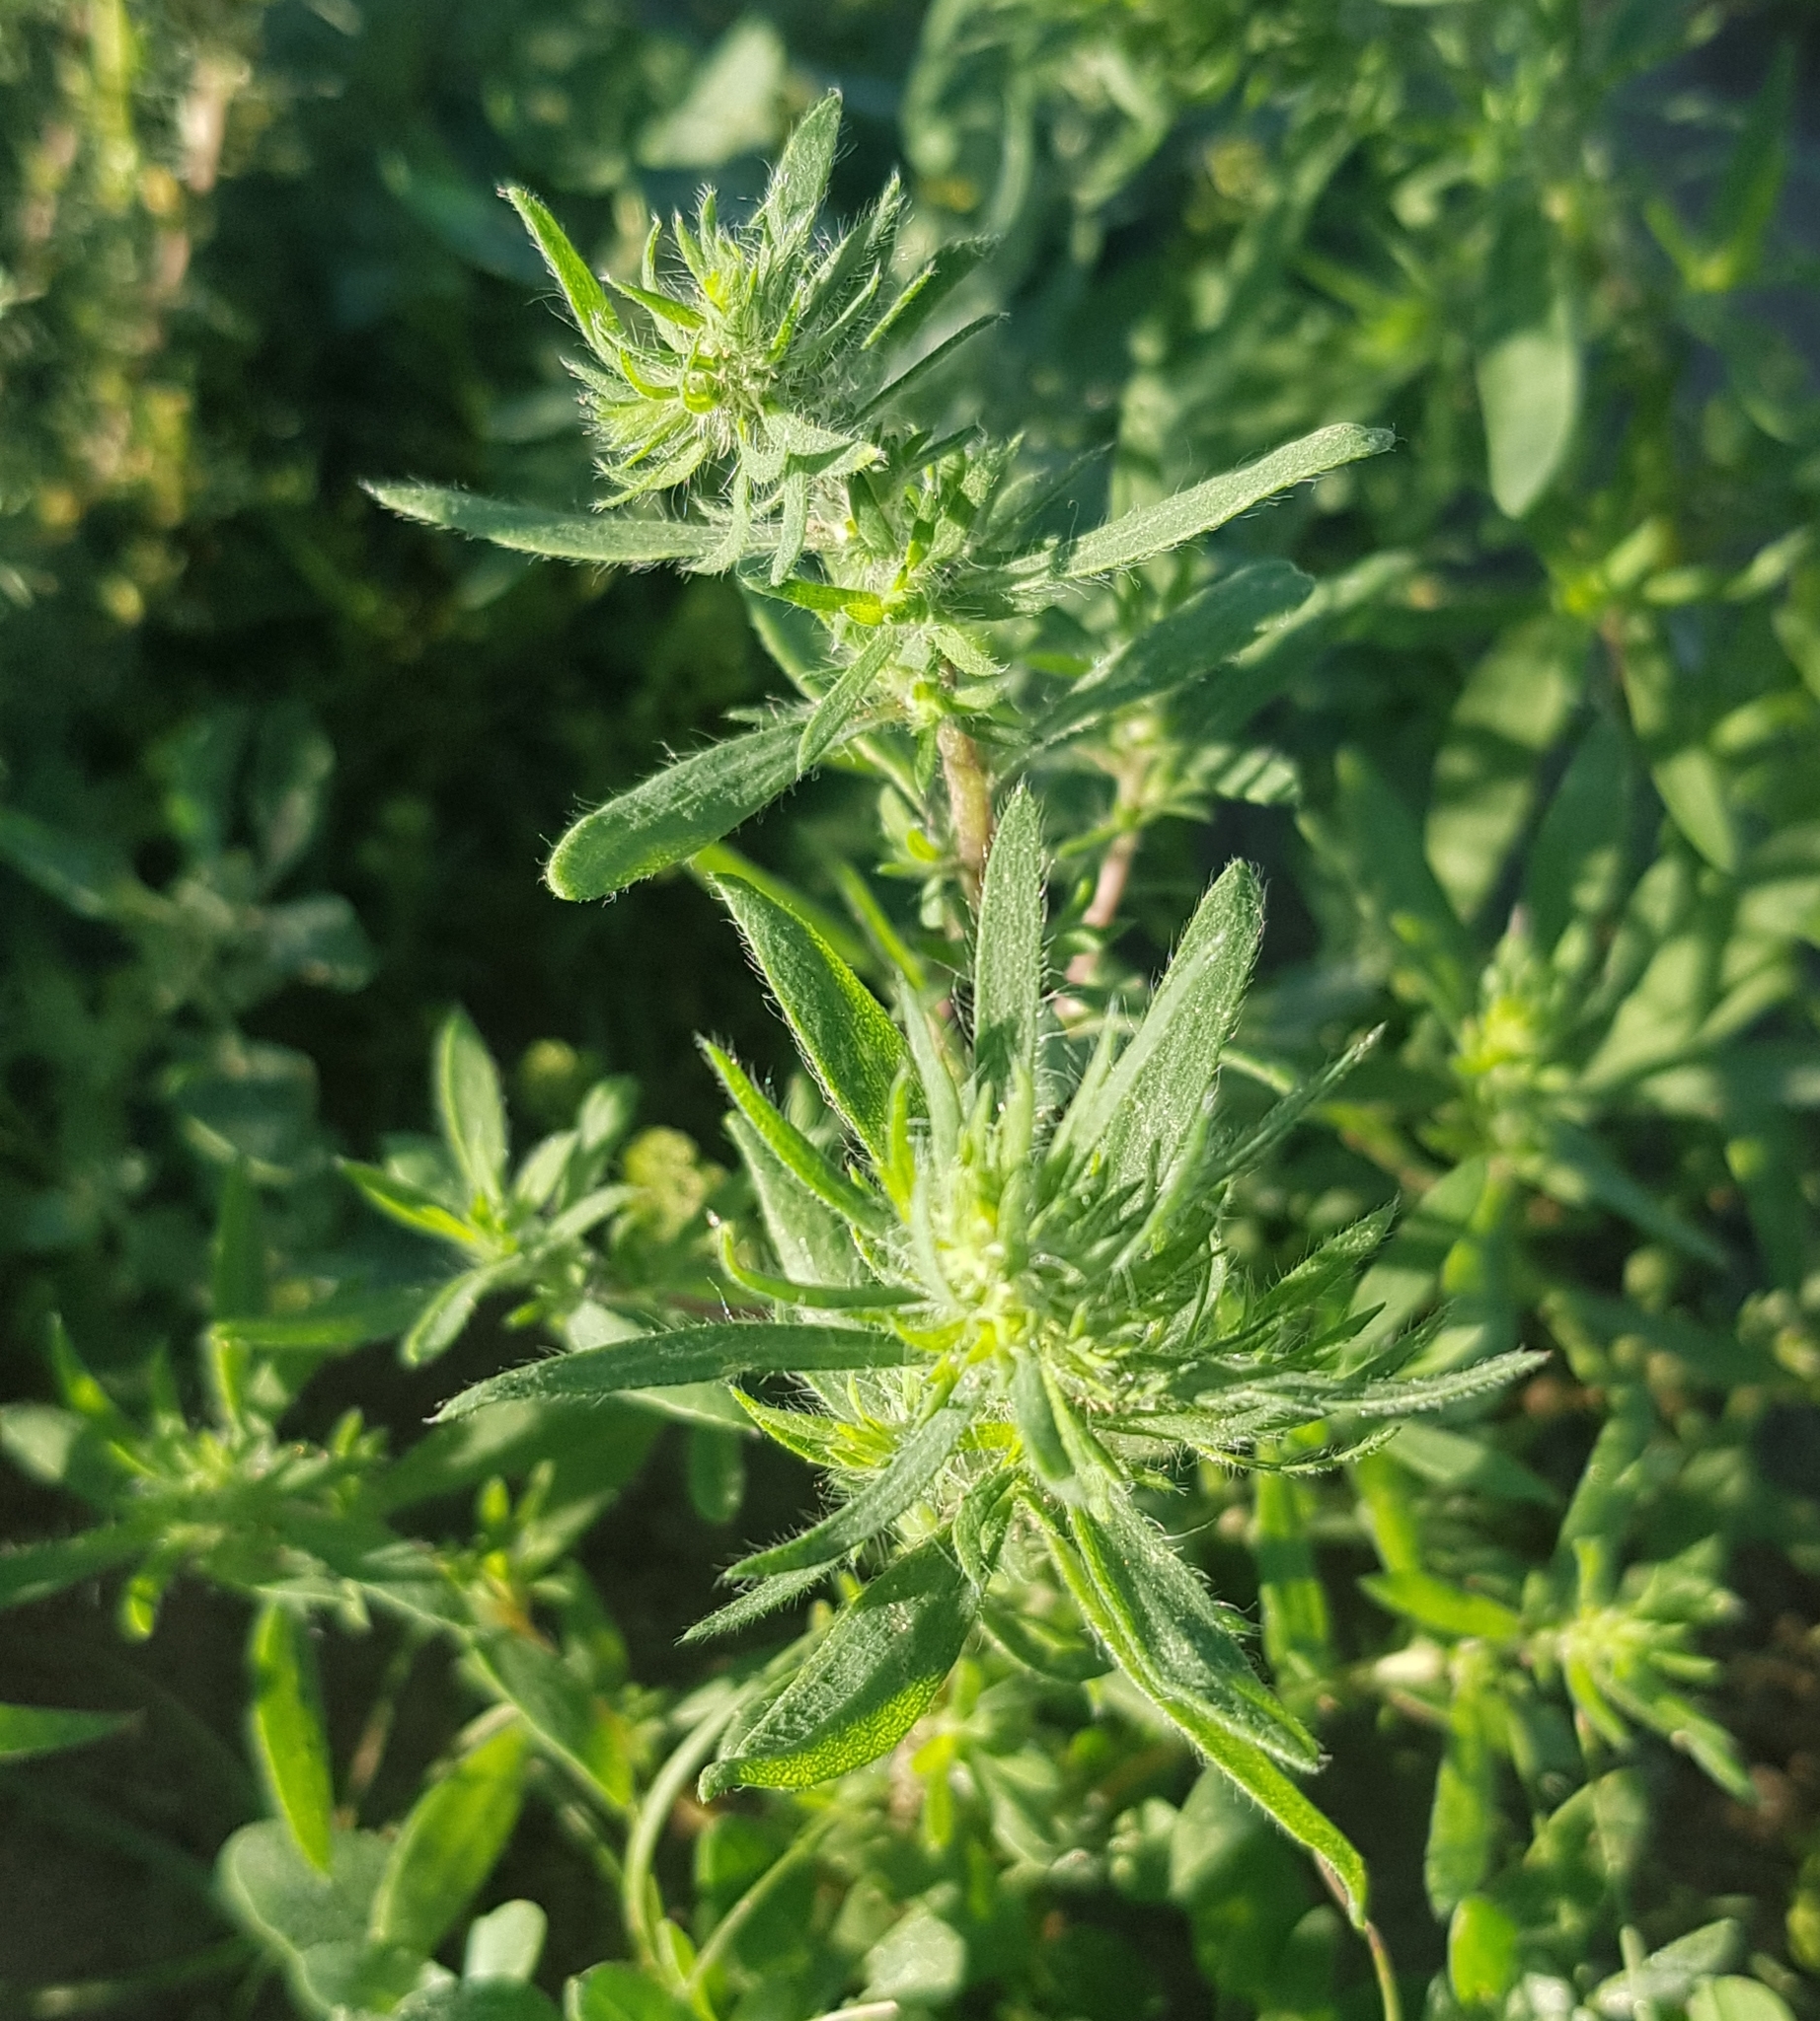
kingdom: Plantae
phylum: Tracheophyta
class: Magnoliopsida
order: Caryophyllales
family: Amaranthaceae
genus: Bassia
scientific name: Bassia scoparia
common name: Belvedere
